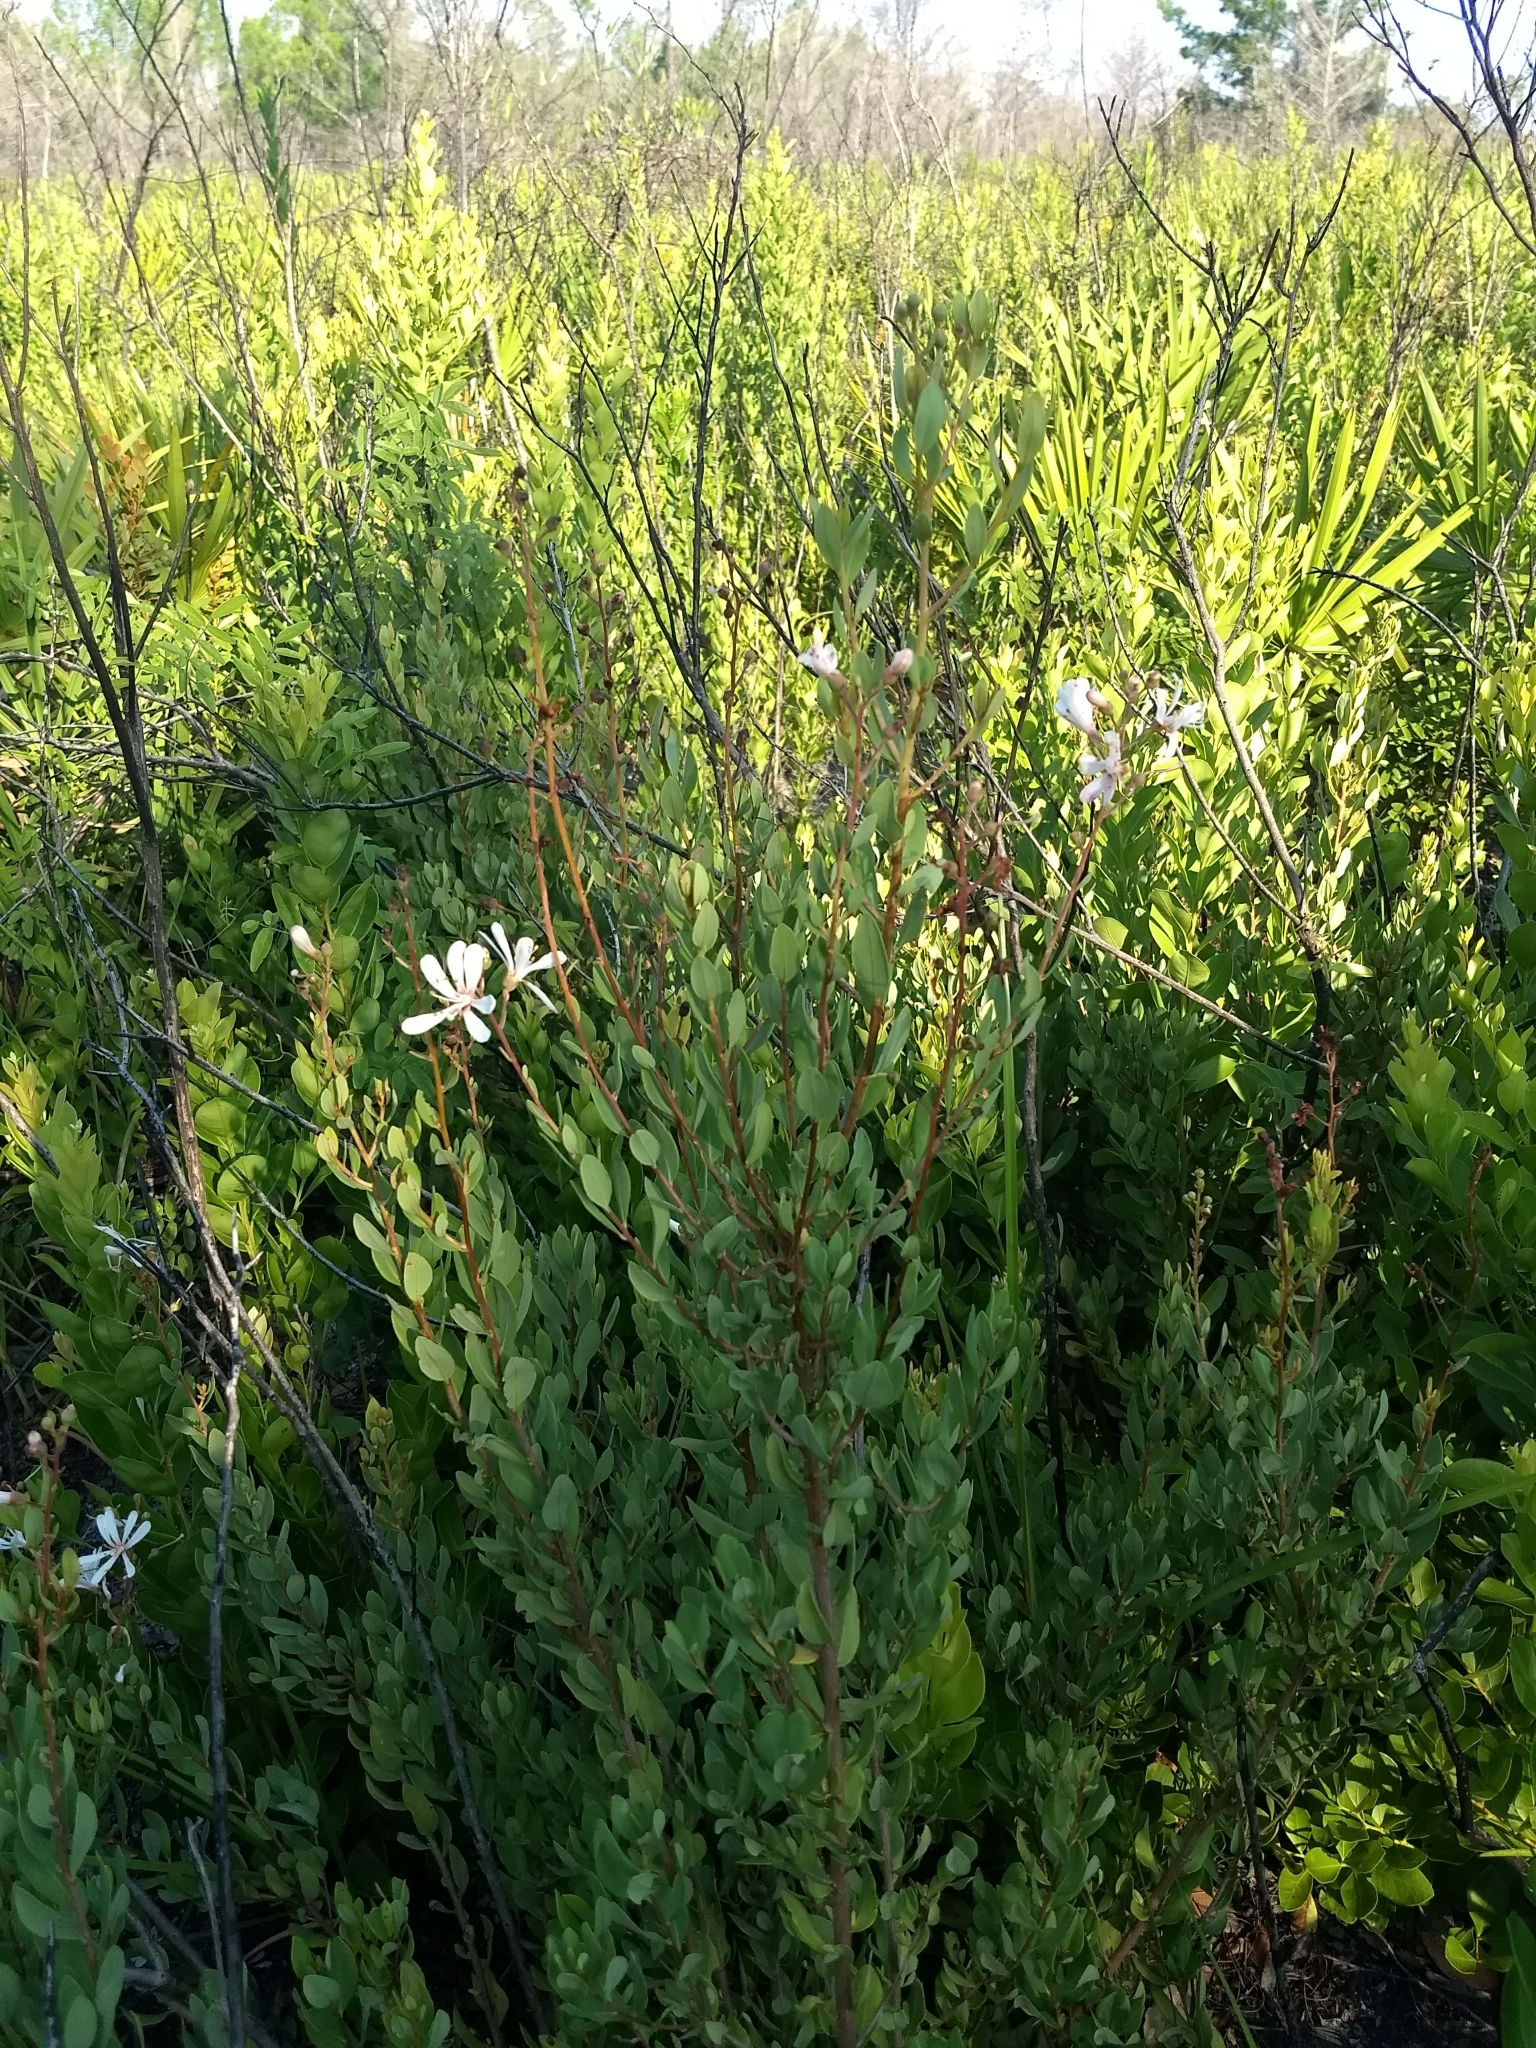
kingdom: Plantae
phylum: Tracheophyta
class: Magnoliopsida
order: Ericales
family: Ericaceae
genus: Bejaria
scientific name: Bejaria racemosa
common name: Tarflower
